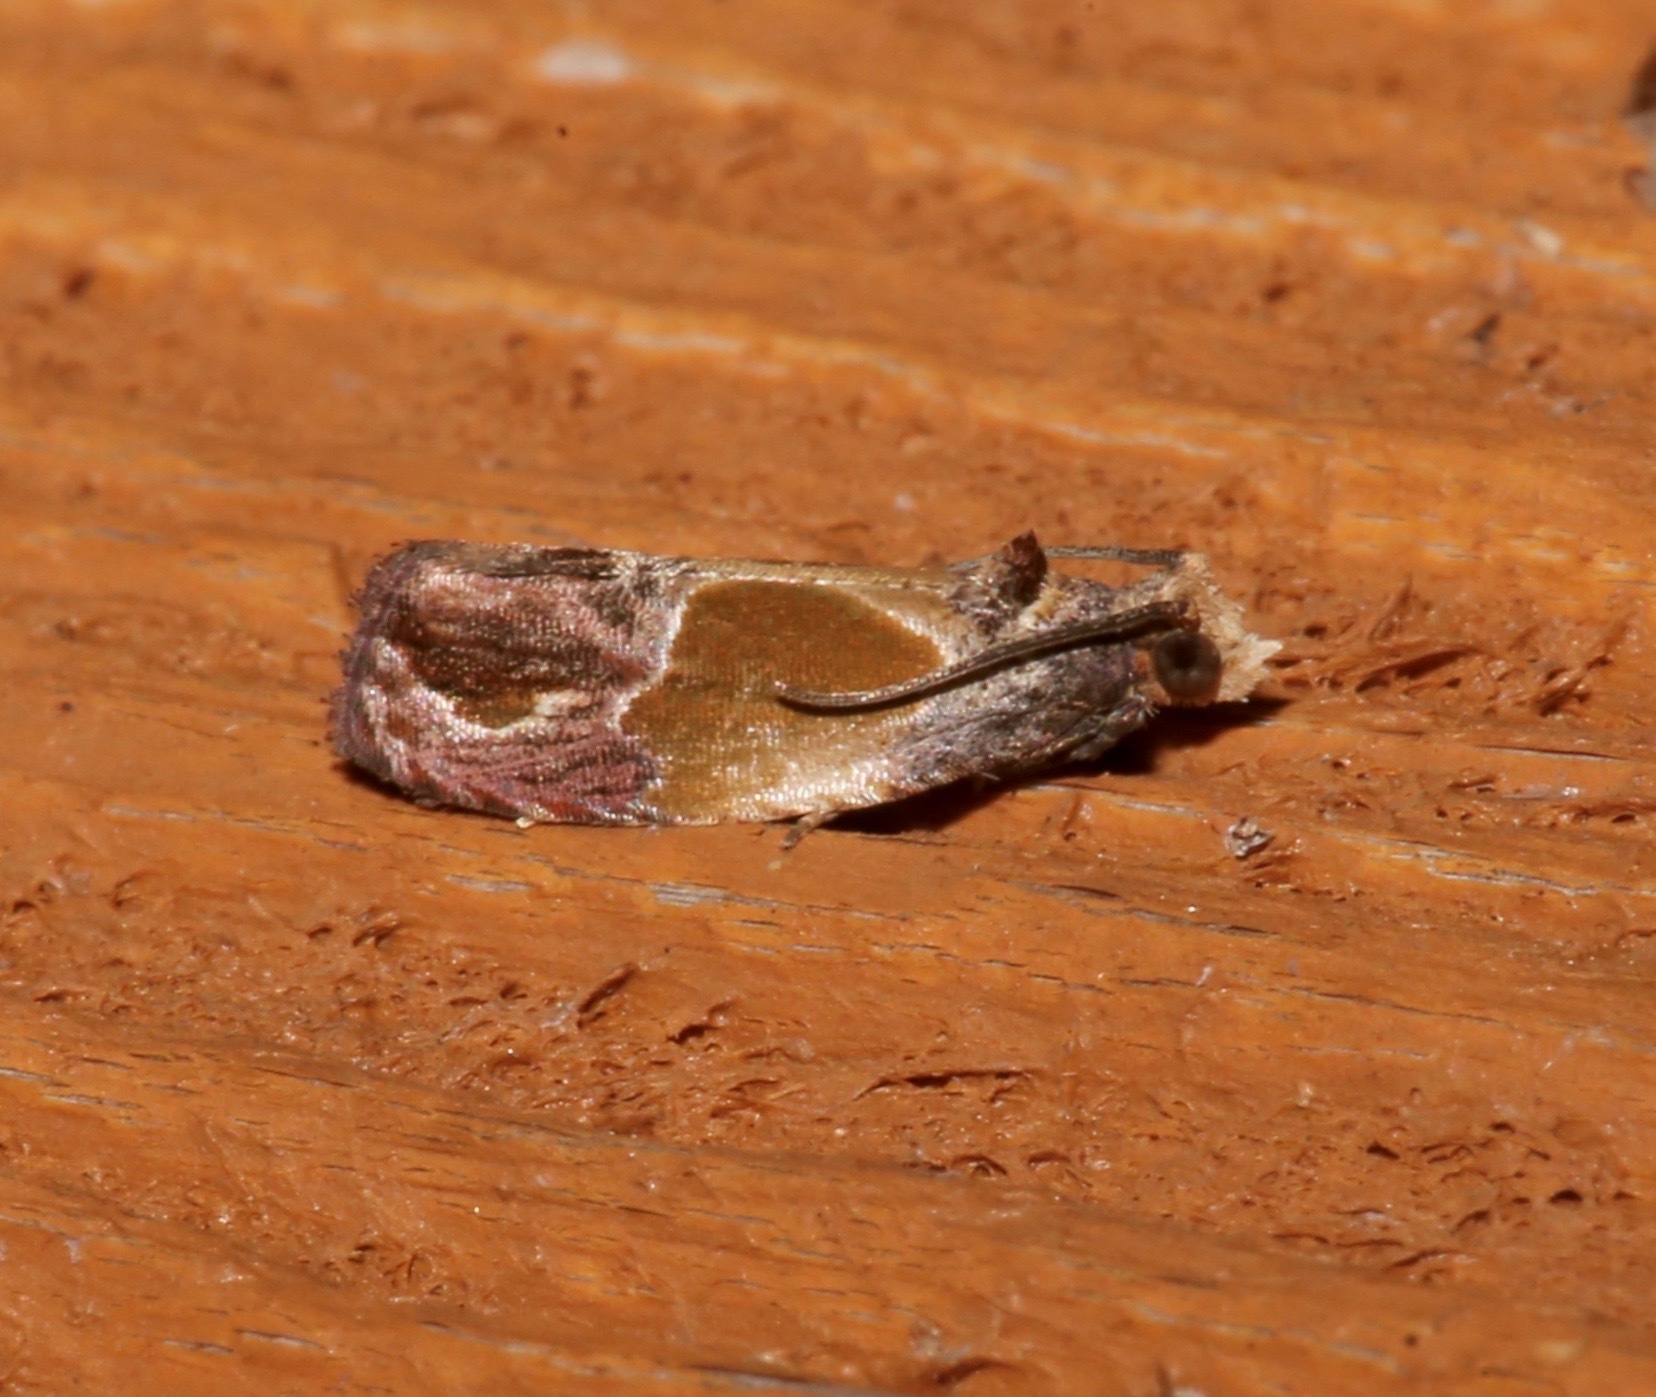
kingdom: Animalia
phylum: Arthropoda
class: Insecta
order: Lepidoptera
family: Tortricidae
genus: Eumarozia
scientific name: Eumarozia malachitana
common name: Sculptured moth
